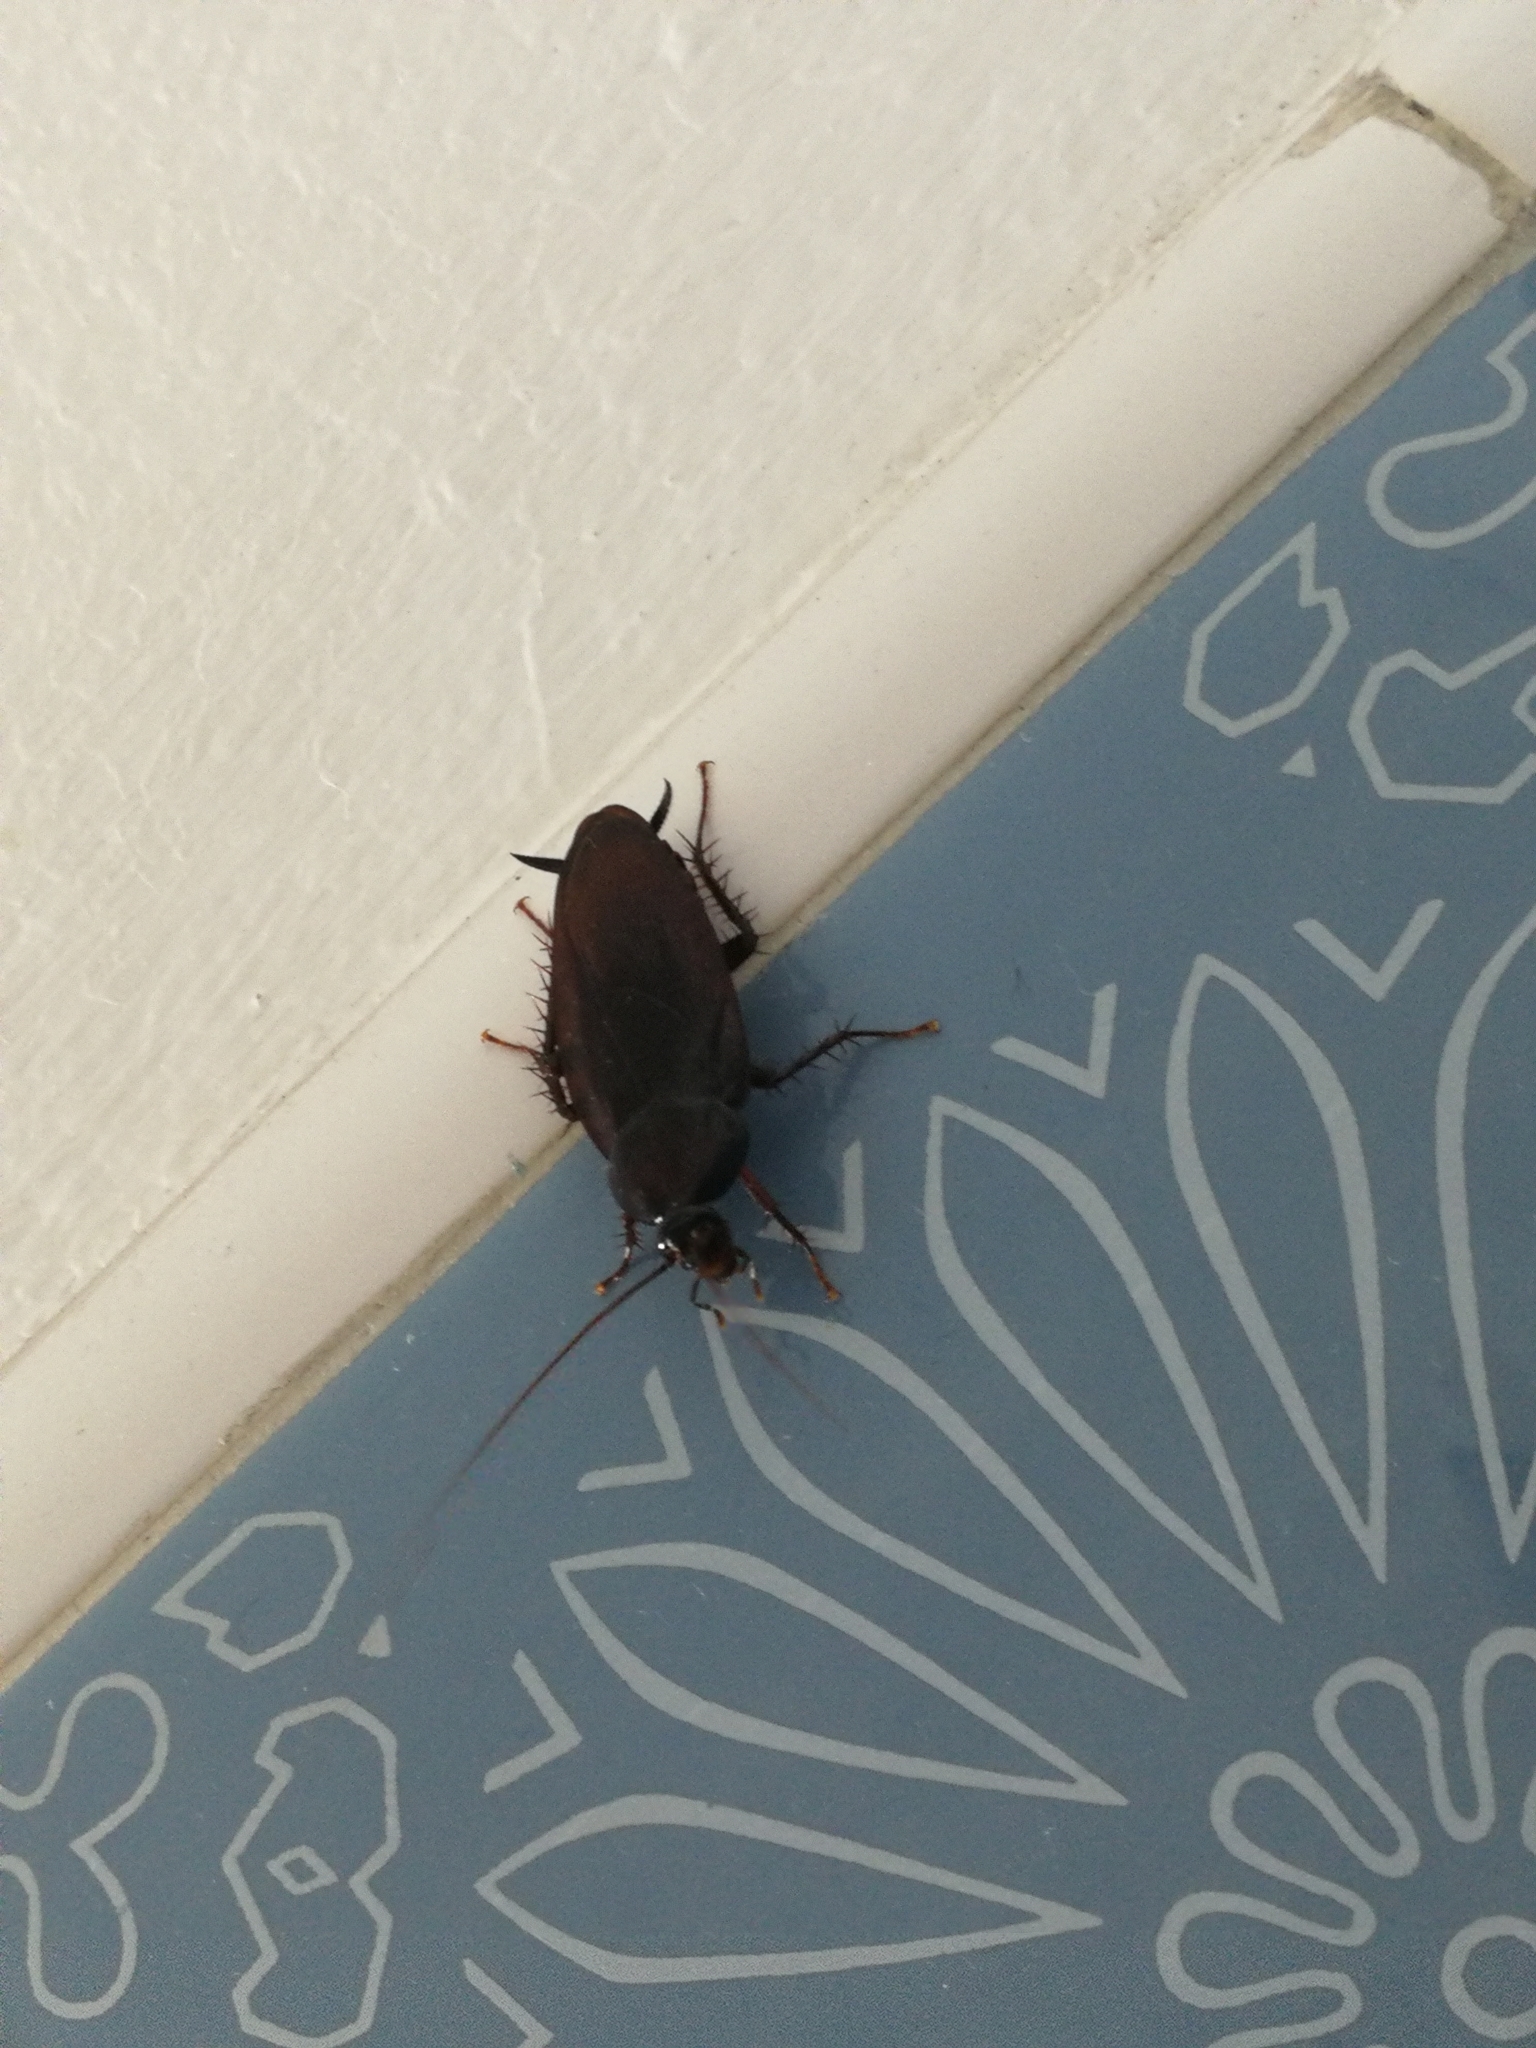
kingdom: Animalia
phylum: Arthropoda
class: Insecta
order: Blattodea
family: Blattidae
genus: Periplaneta
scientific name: Periplaneta fuliginosa
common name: Smokeybrown cockroad
